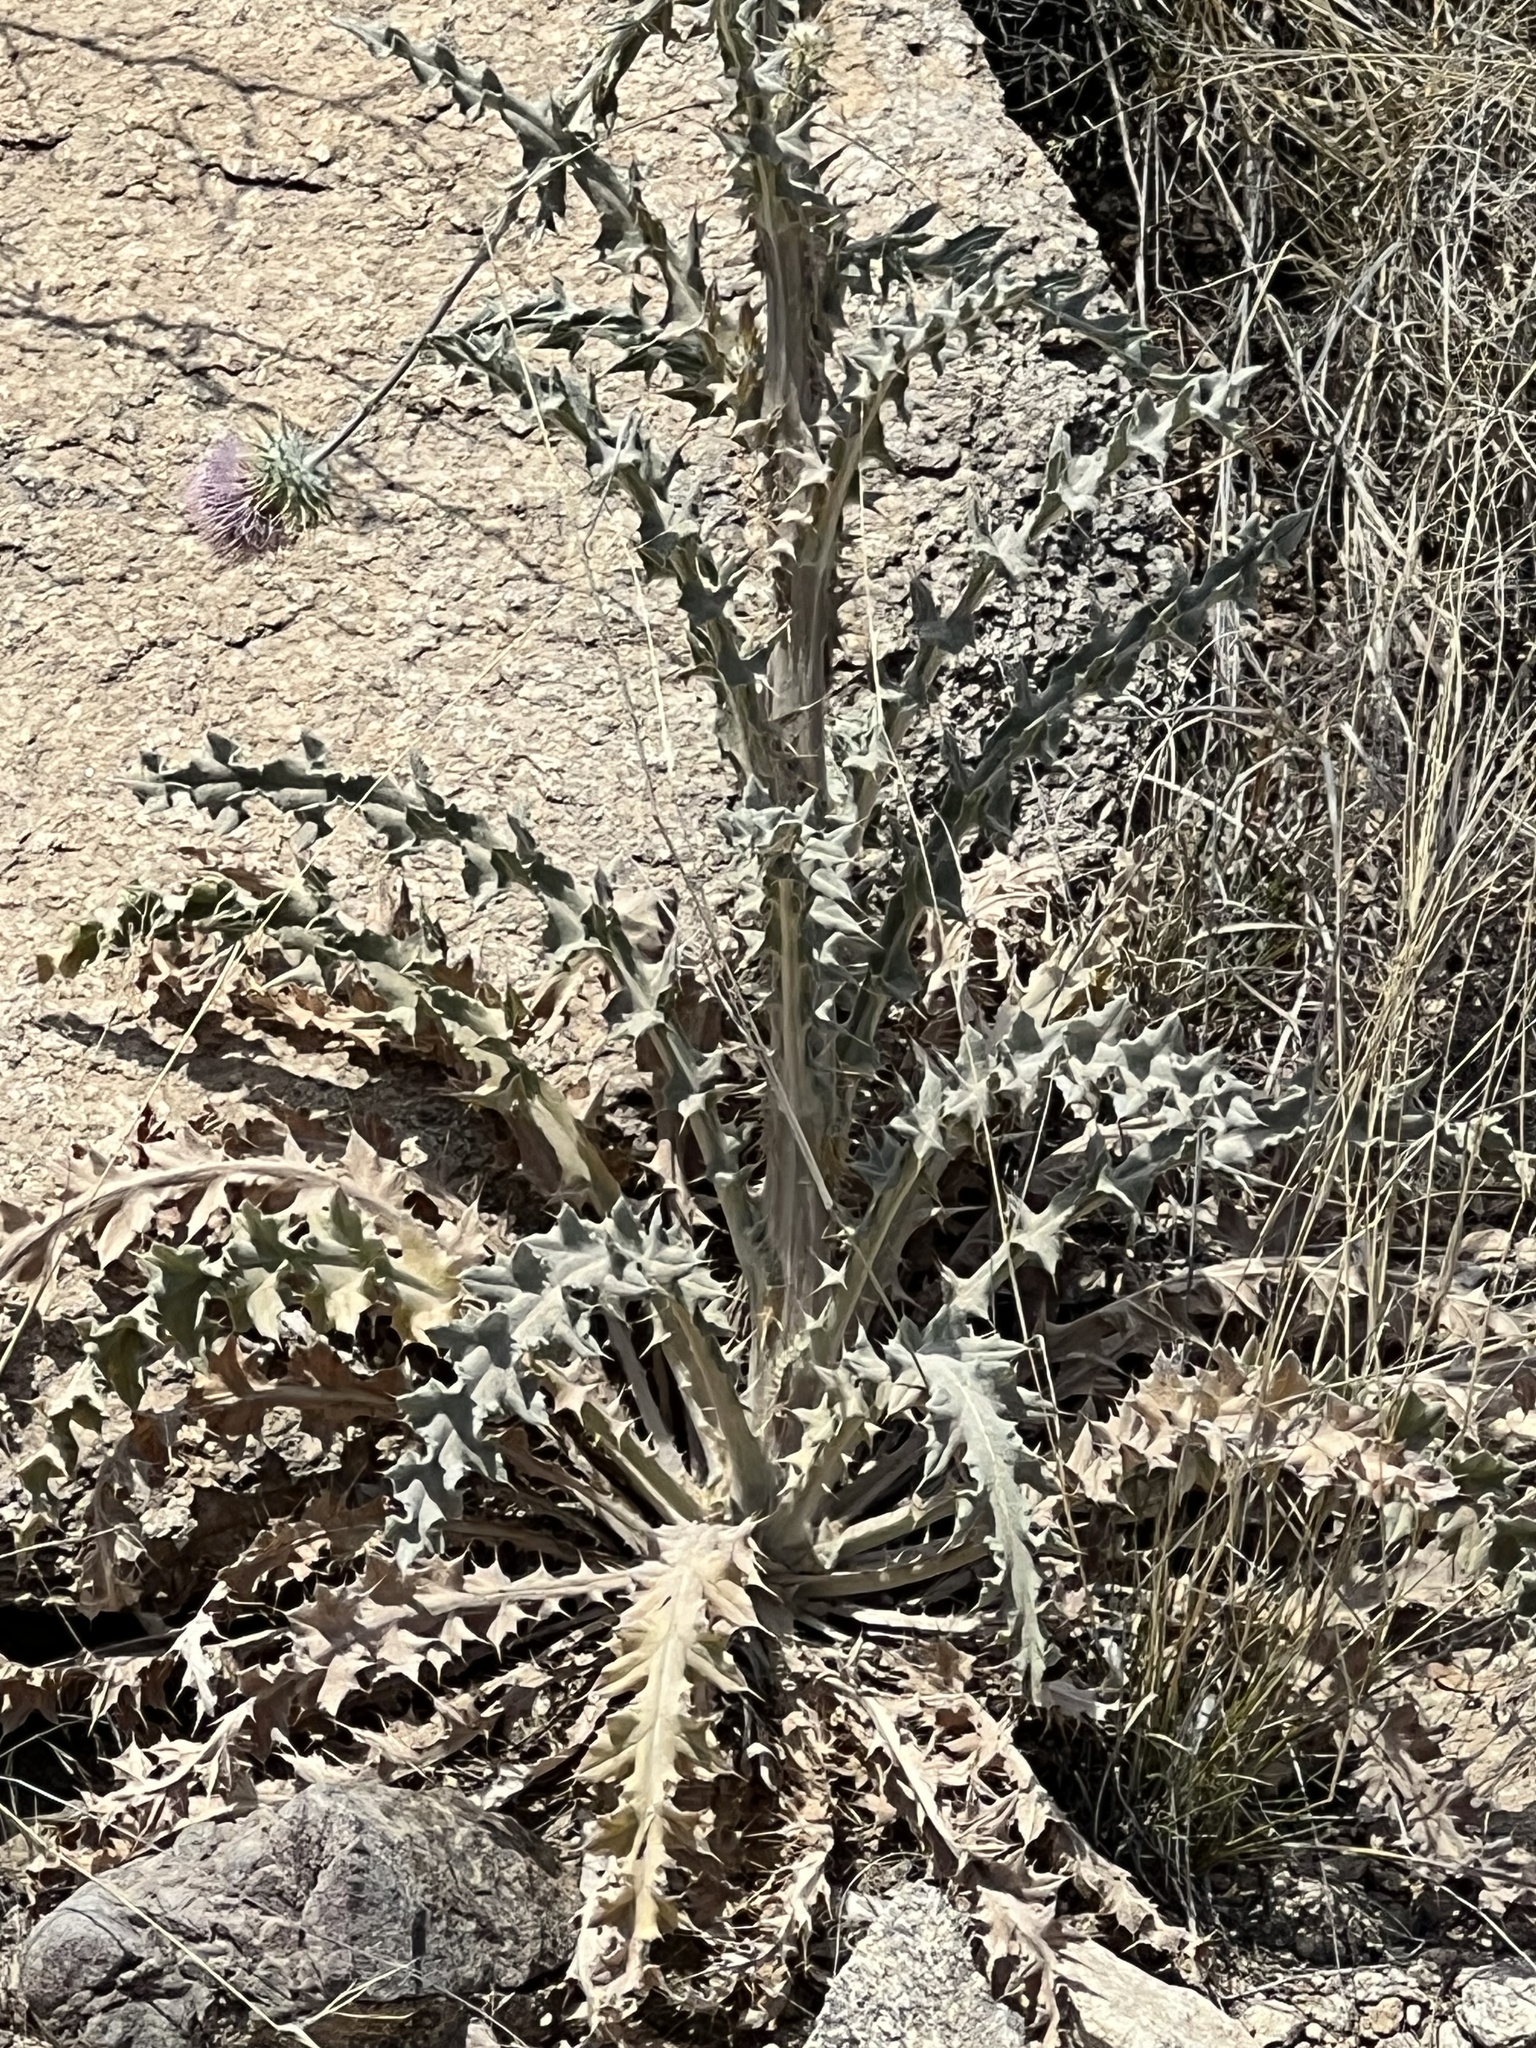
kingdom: Plantae
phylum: Tracheophyta
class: Magnoliopsida
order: Asterales
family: Asteraceae
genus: Cirsium
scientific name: Cirsium neomexicanum
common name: New mexico thistle
